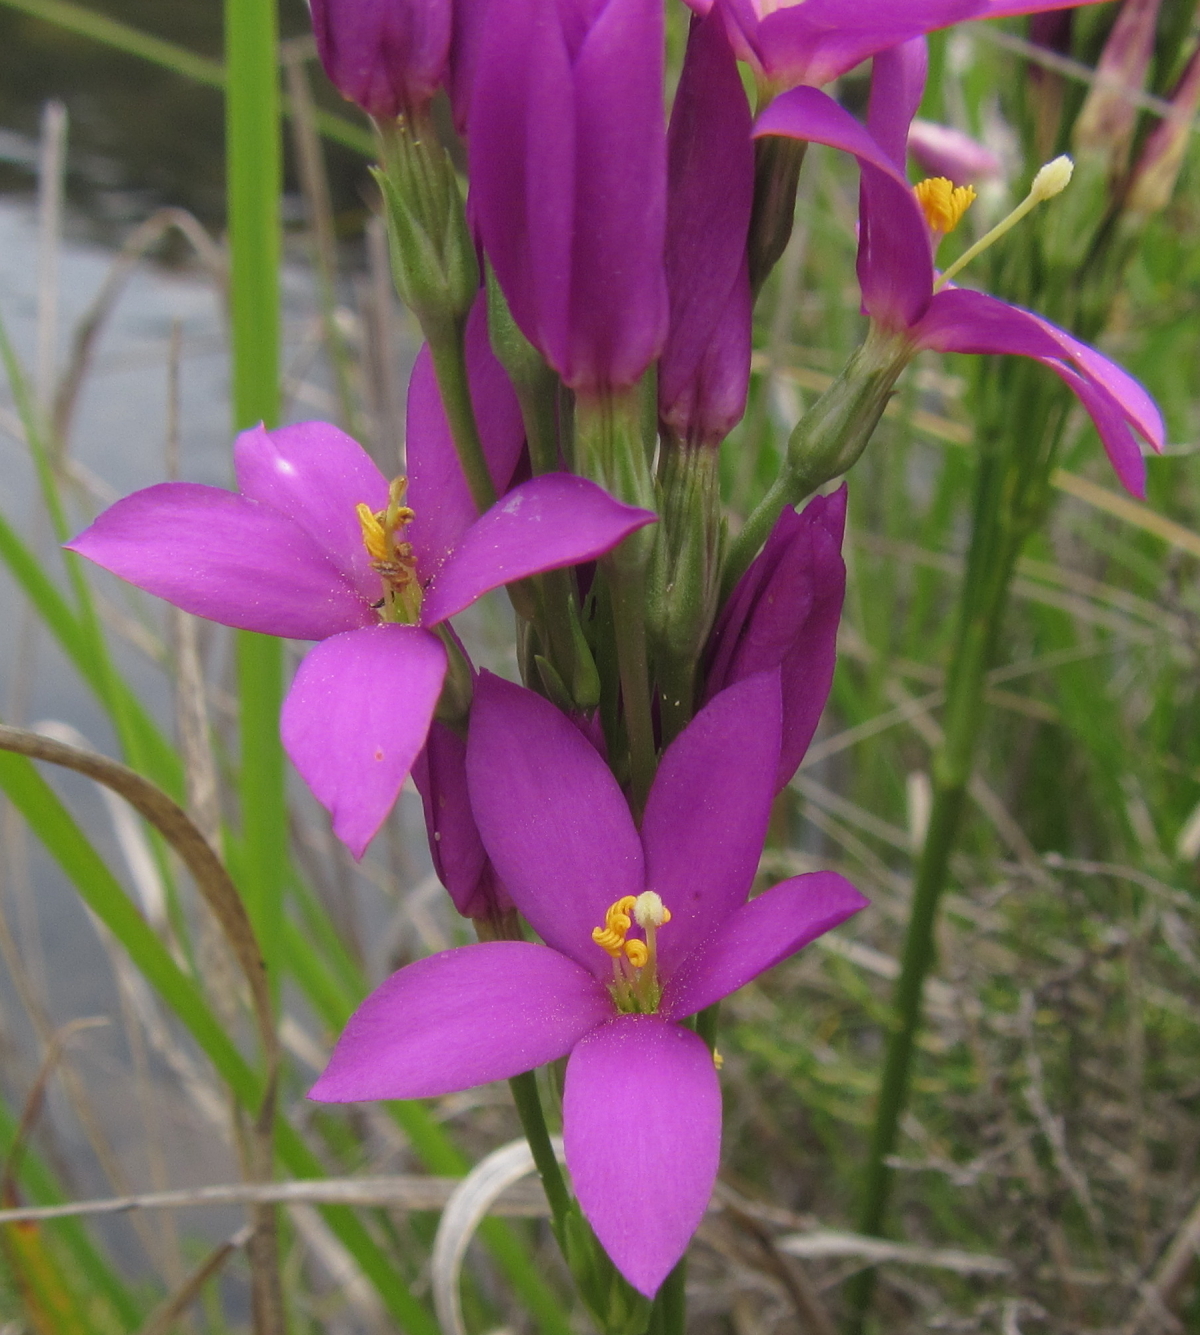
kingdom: Plantae
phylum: Tracheophyta
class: Magnoliopsida
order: Gentianales
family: Gentianaceae
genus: Chironia
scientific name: Chironia krebsii
